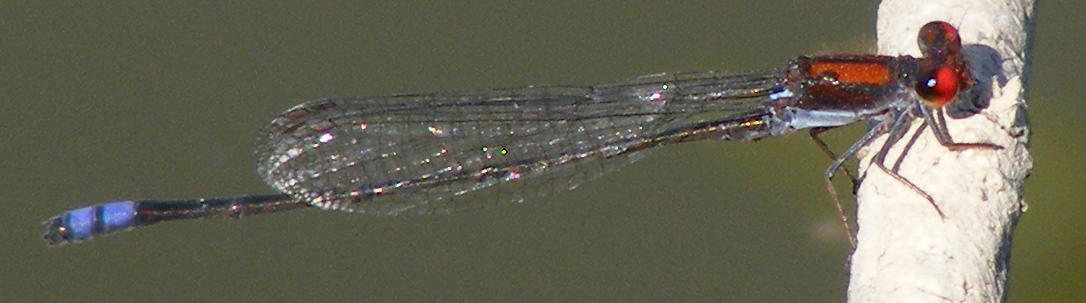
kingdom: Animalia
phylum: Arthropoda
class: Insecta
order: Odonata
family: Coenagrionidae
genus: Pseudagrion
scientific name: Pseudagrion massaicum
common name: Masai sprite
